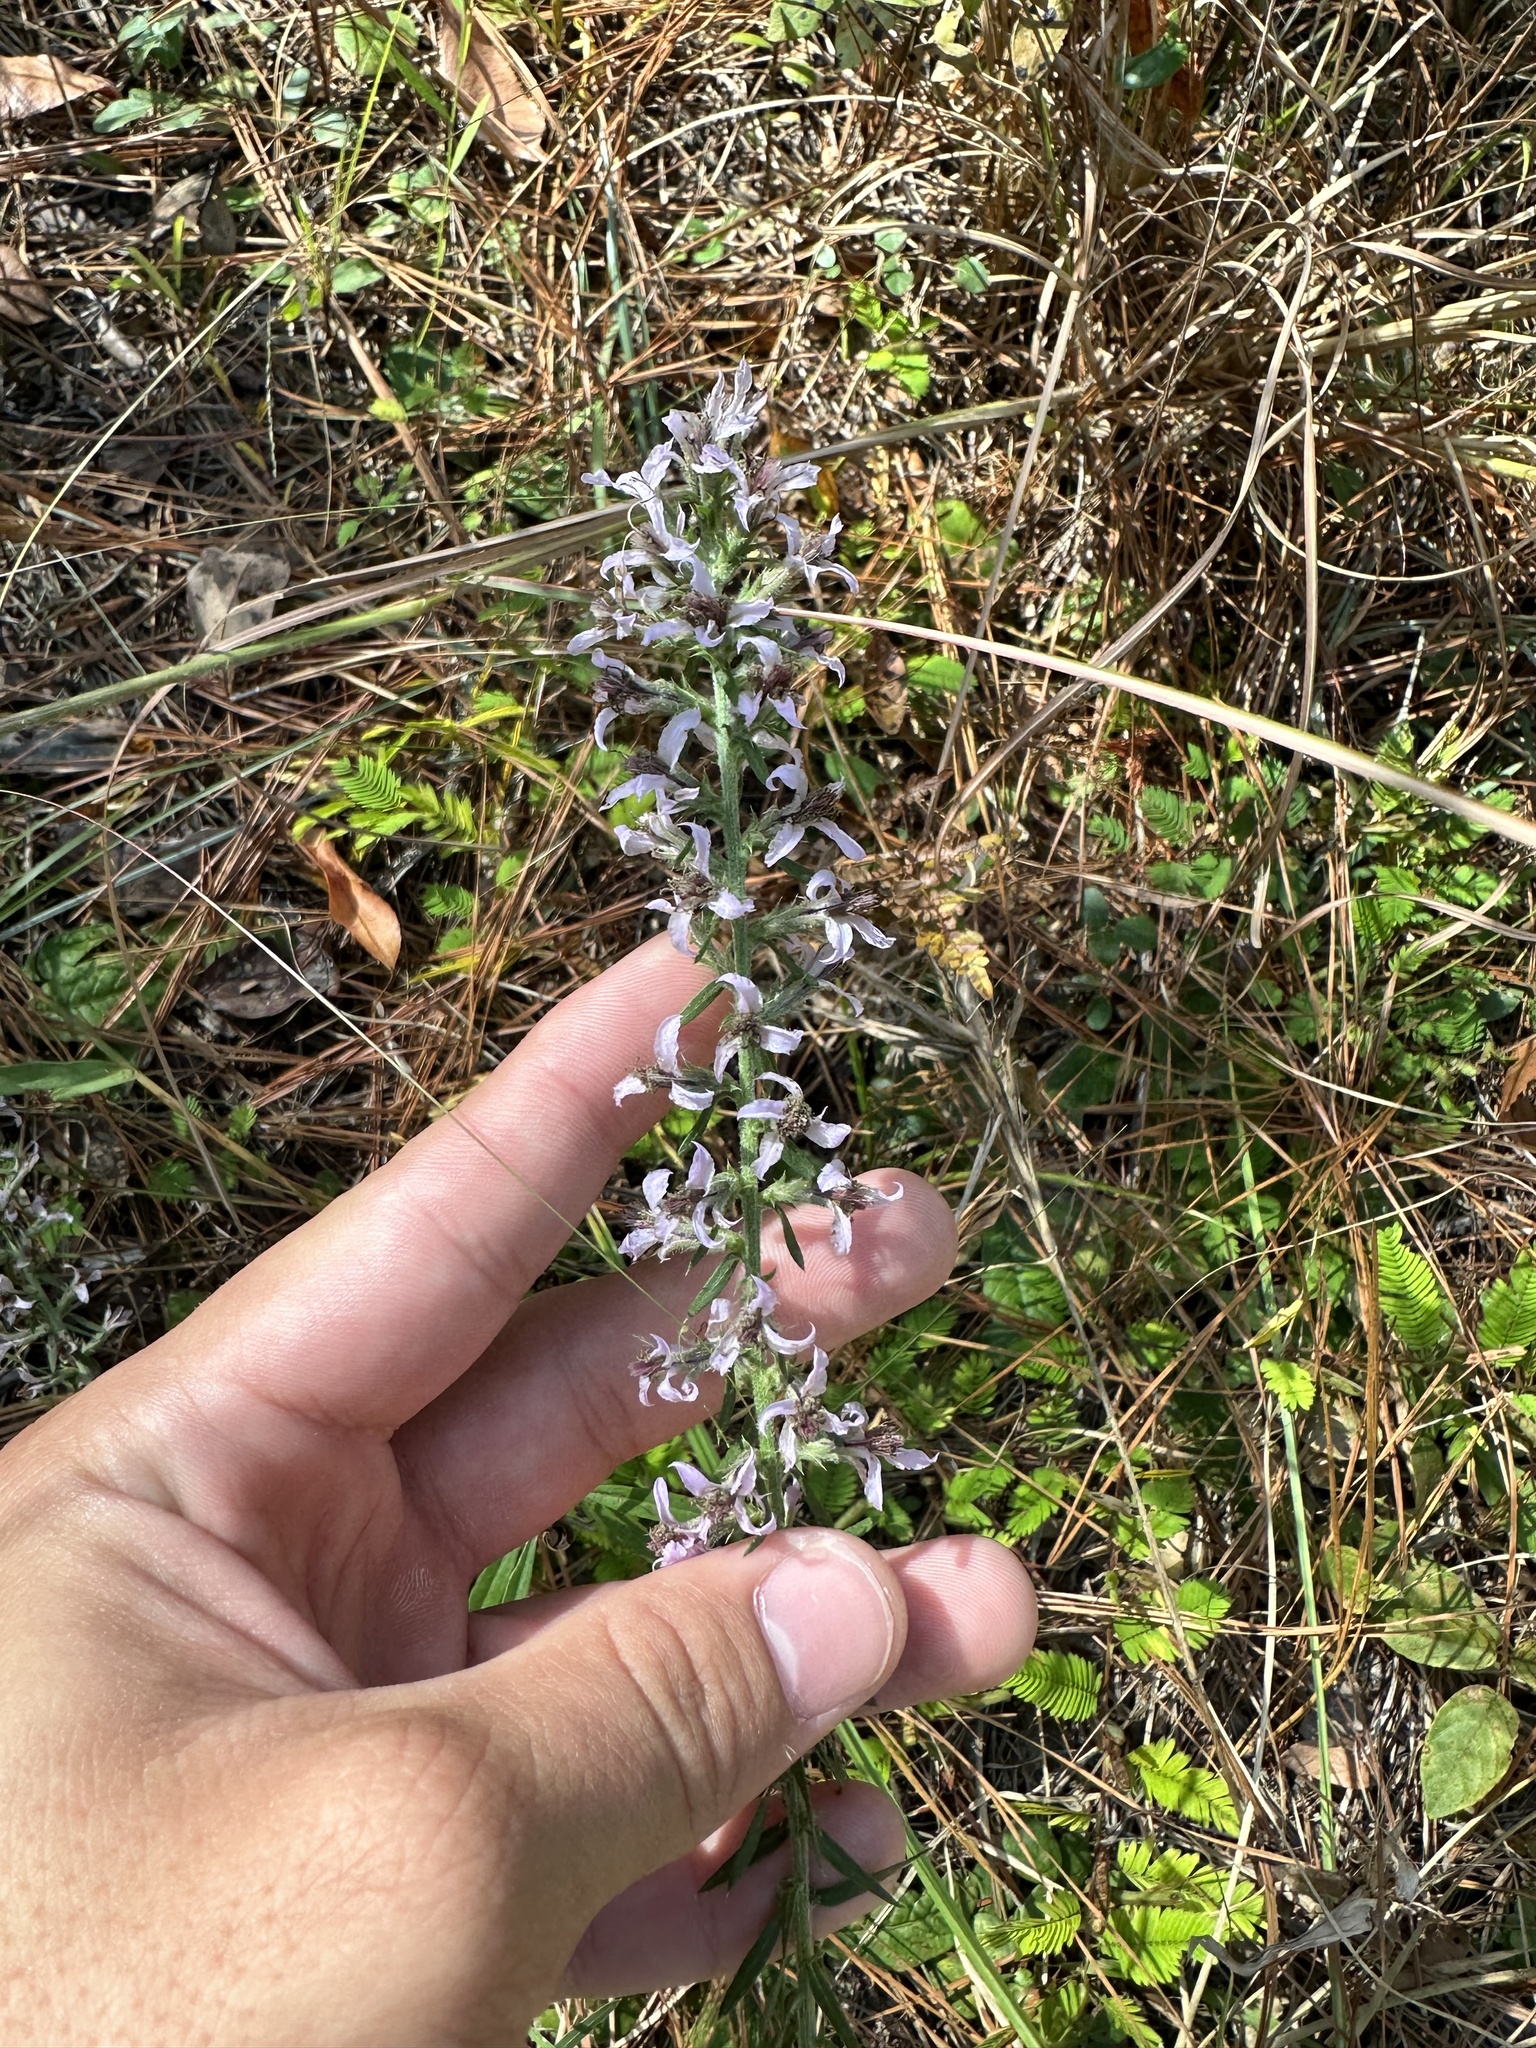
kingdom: Plantae
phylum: Tracheophyta
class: Magnoliopsida
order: Asterales
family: Asteraceae
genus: Liatris
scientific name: Liatris elegans
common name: Pinkscale gayfeather
